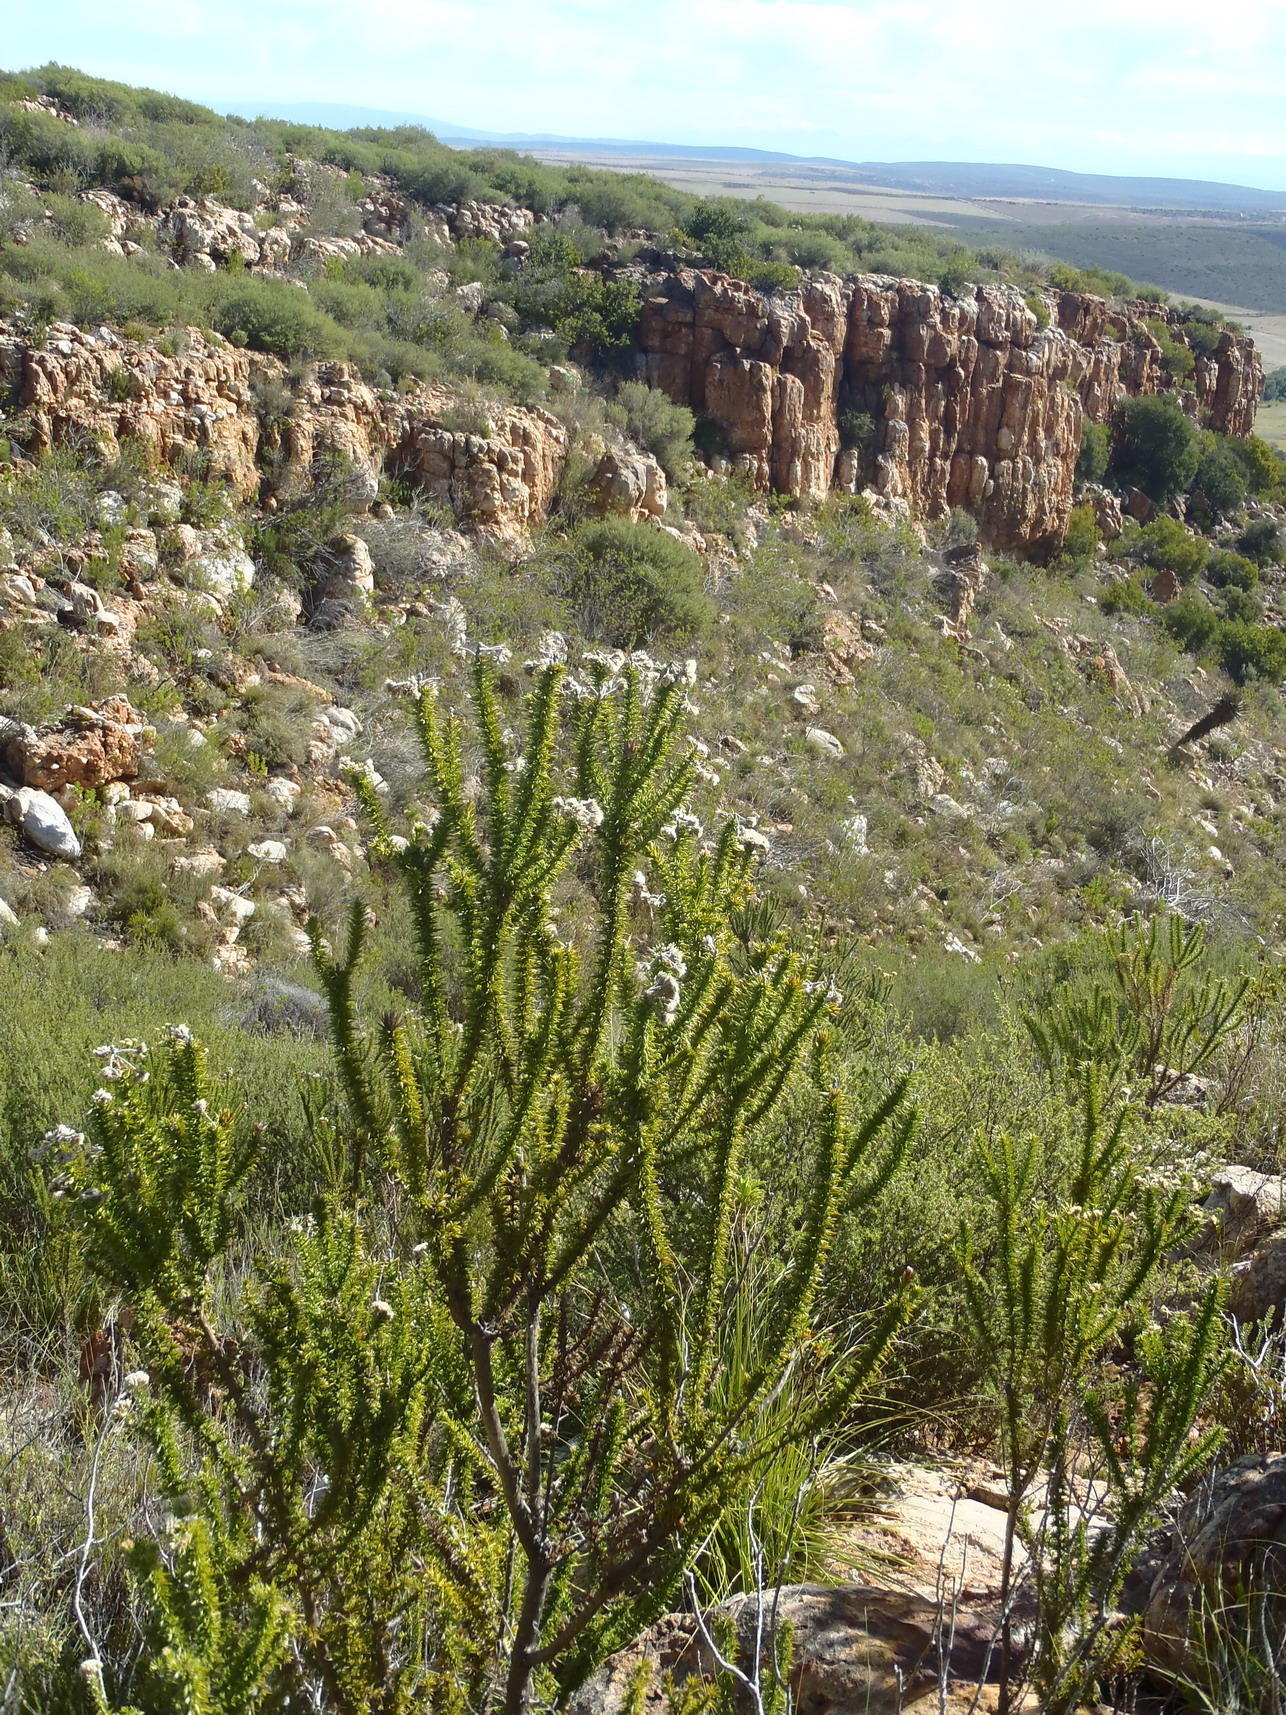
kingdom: Plantae
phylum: Tracheophyta
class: Magnoliopsida
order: Asterales
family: Asteraceae
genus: Metalasia
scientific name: Metalasia acuta
